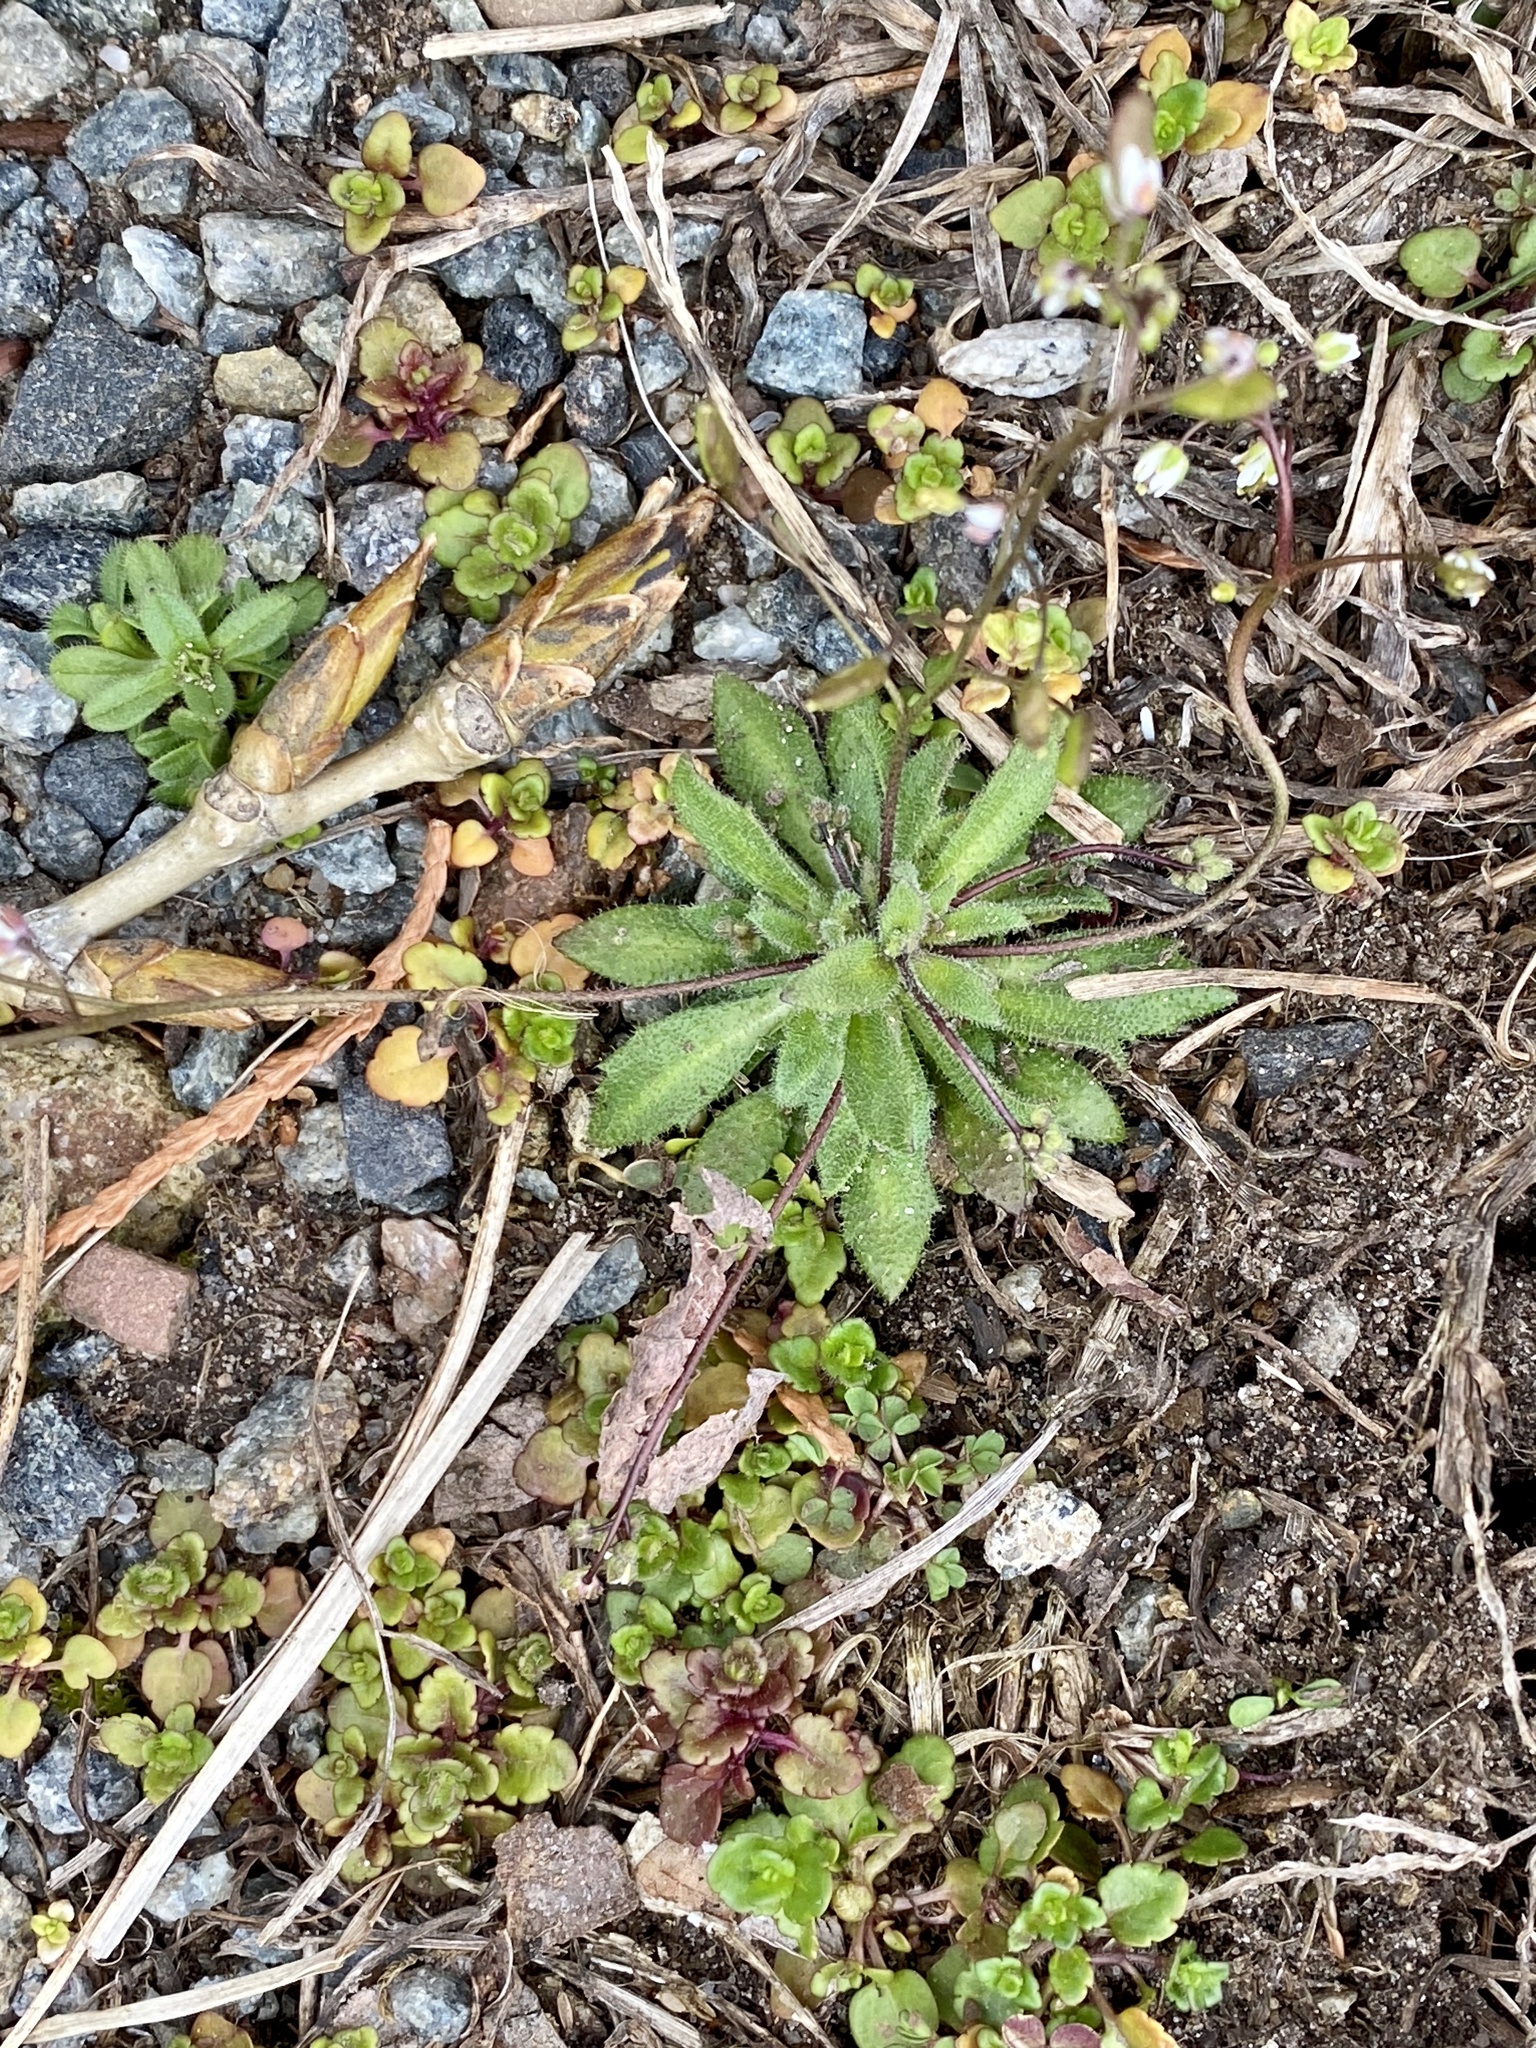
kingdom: Plantae
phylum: Tracheophyta
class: Magnoliopsida
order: Brassicales
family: Brassicaceae
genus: Draba
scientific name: Draba verna
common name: Spring draba
